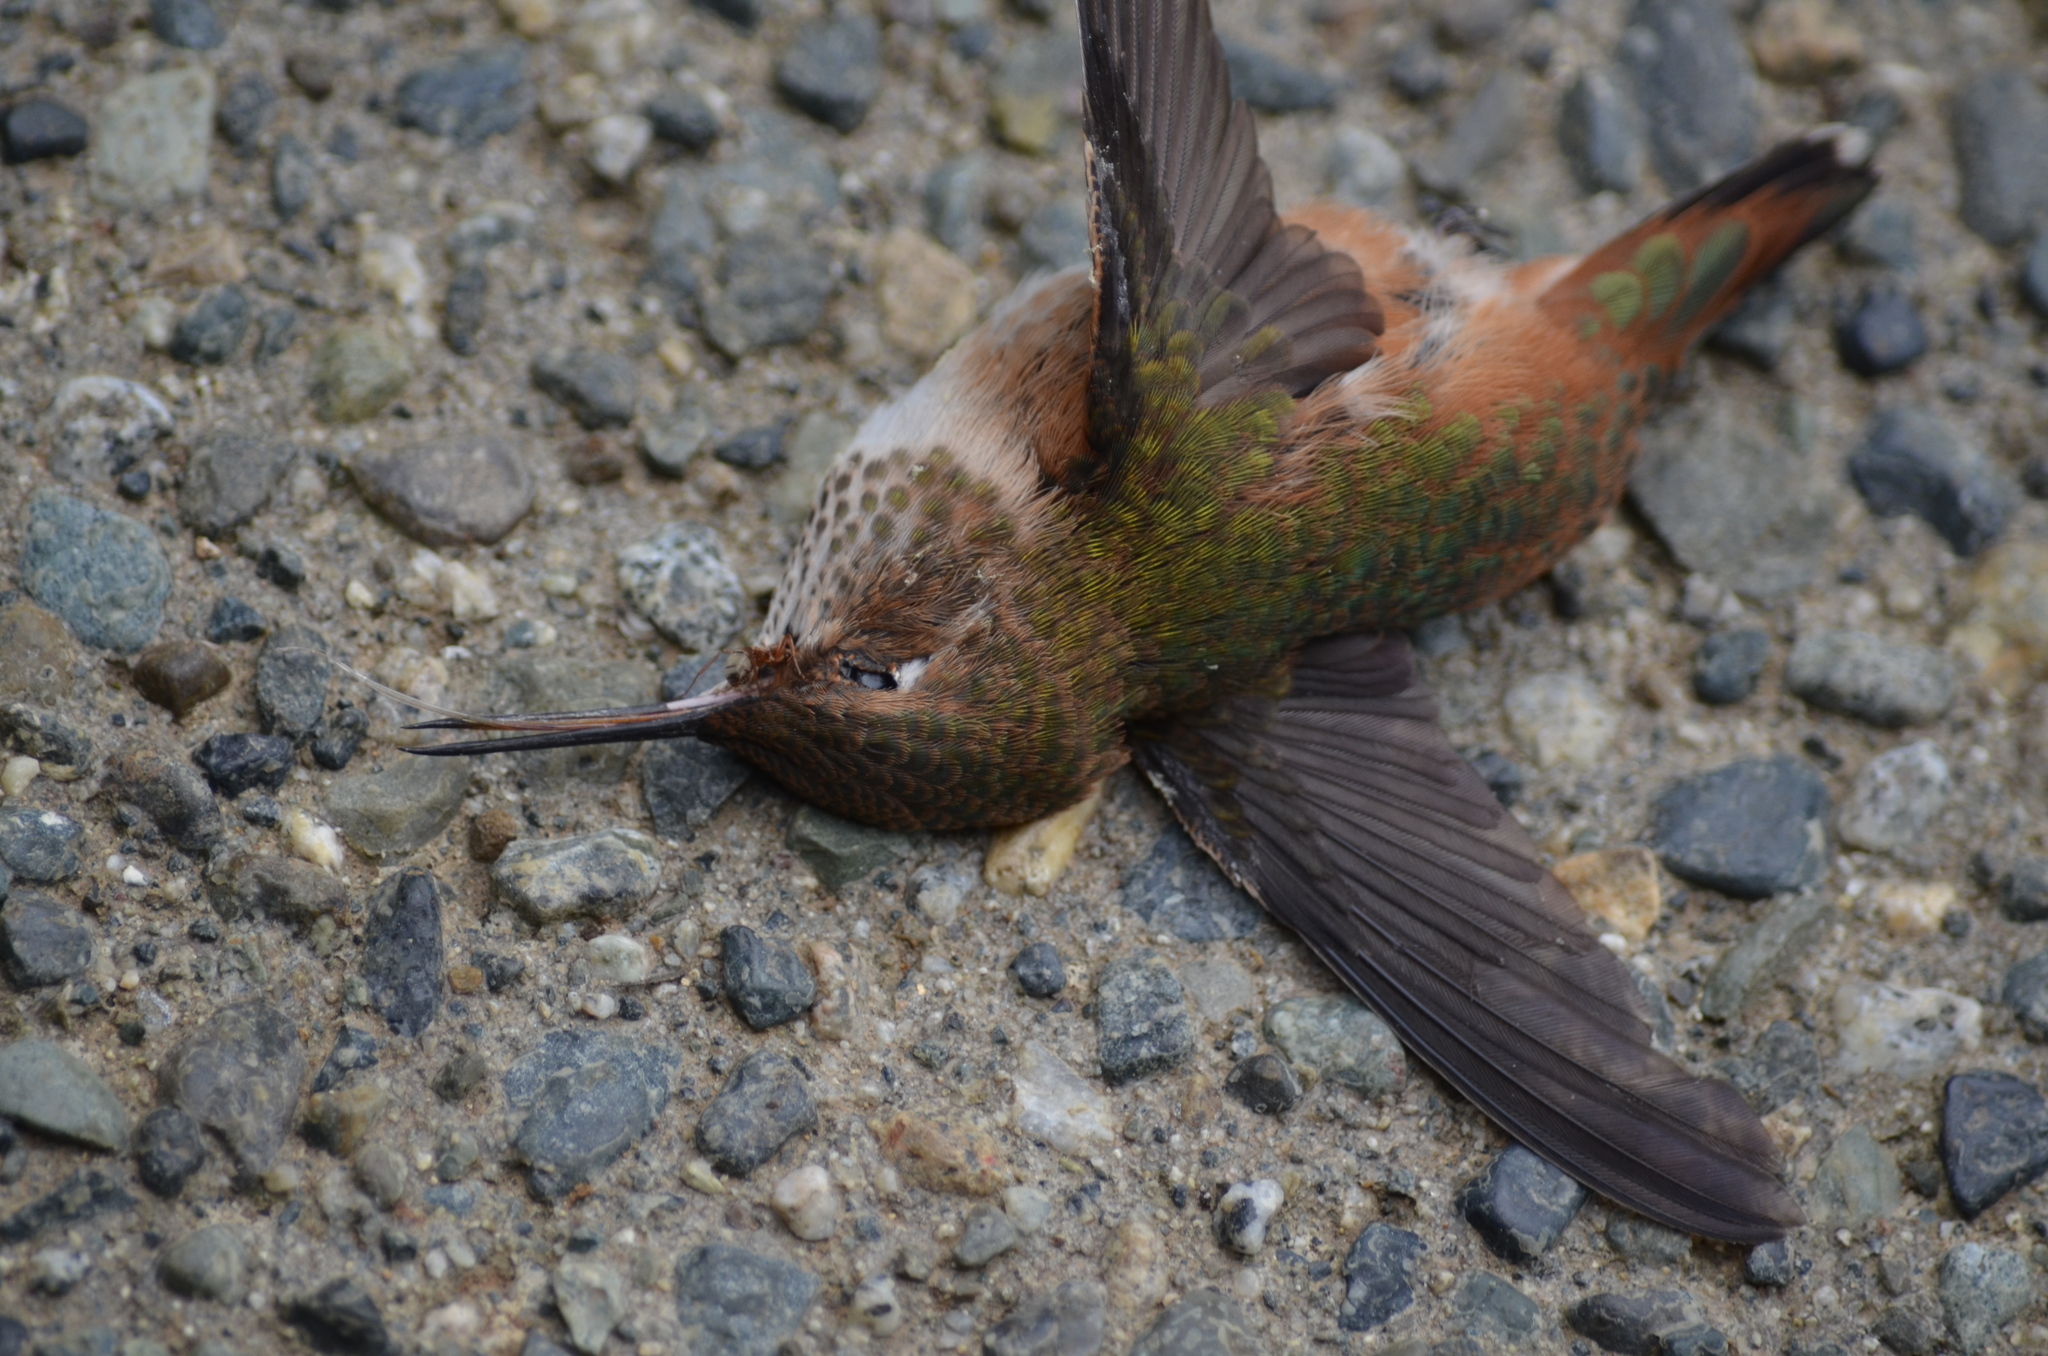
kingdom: Animalia
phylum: Chordata
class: Aves
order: Apodiformes
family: Trochilidae
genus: Selasphorus
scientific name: Selasphorus rufus
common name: Rufous hummingbird
